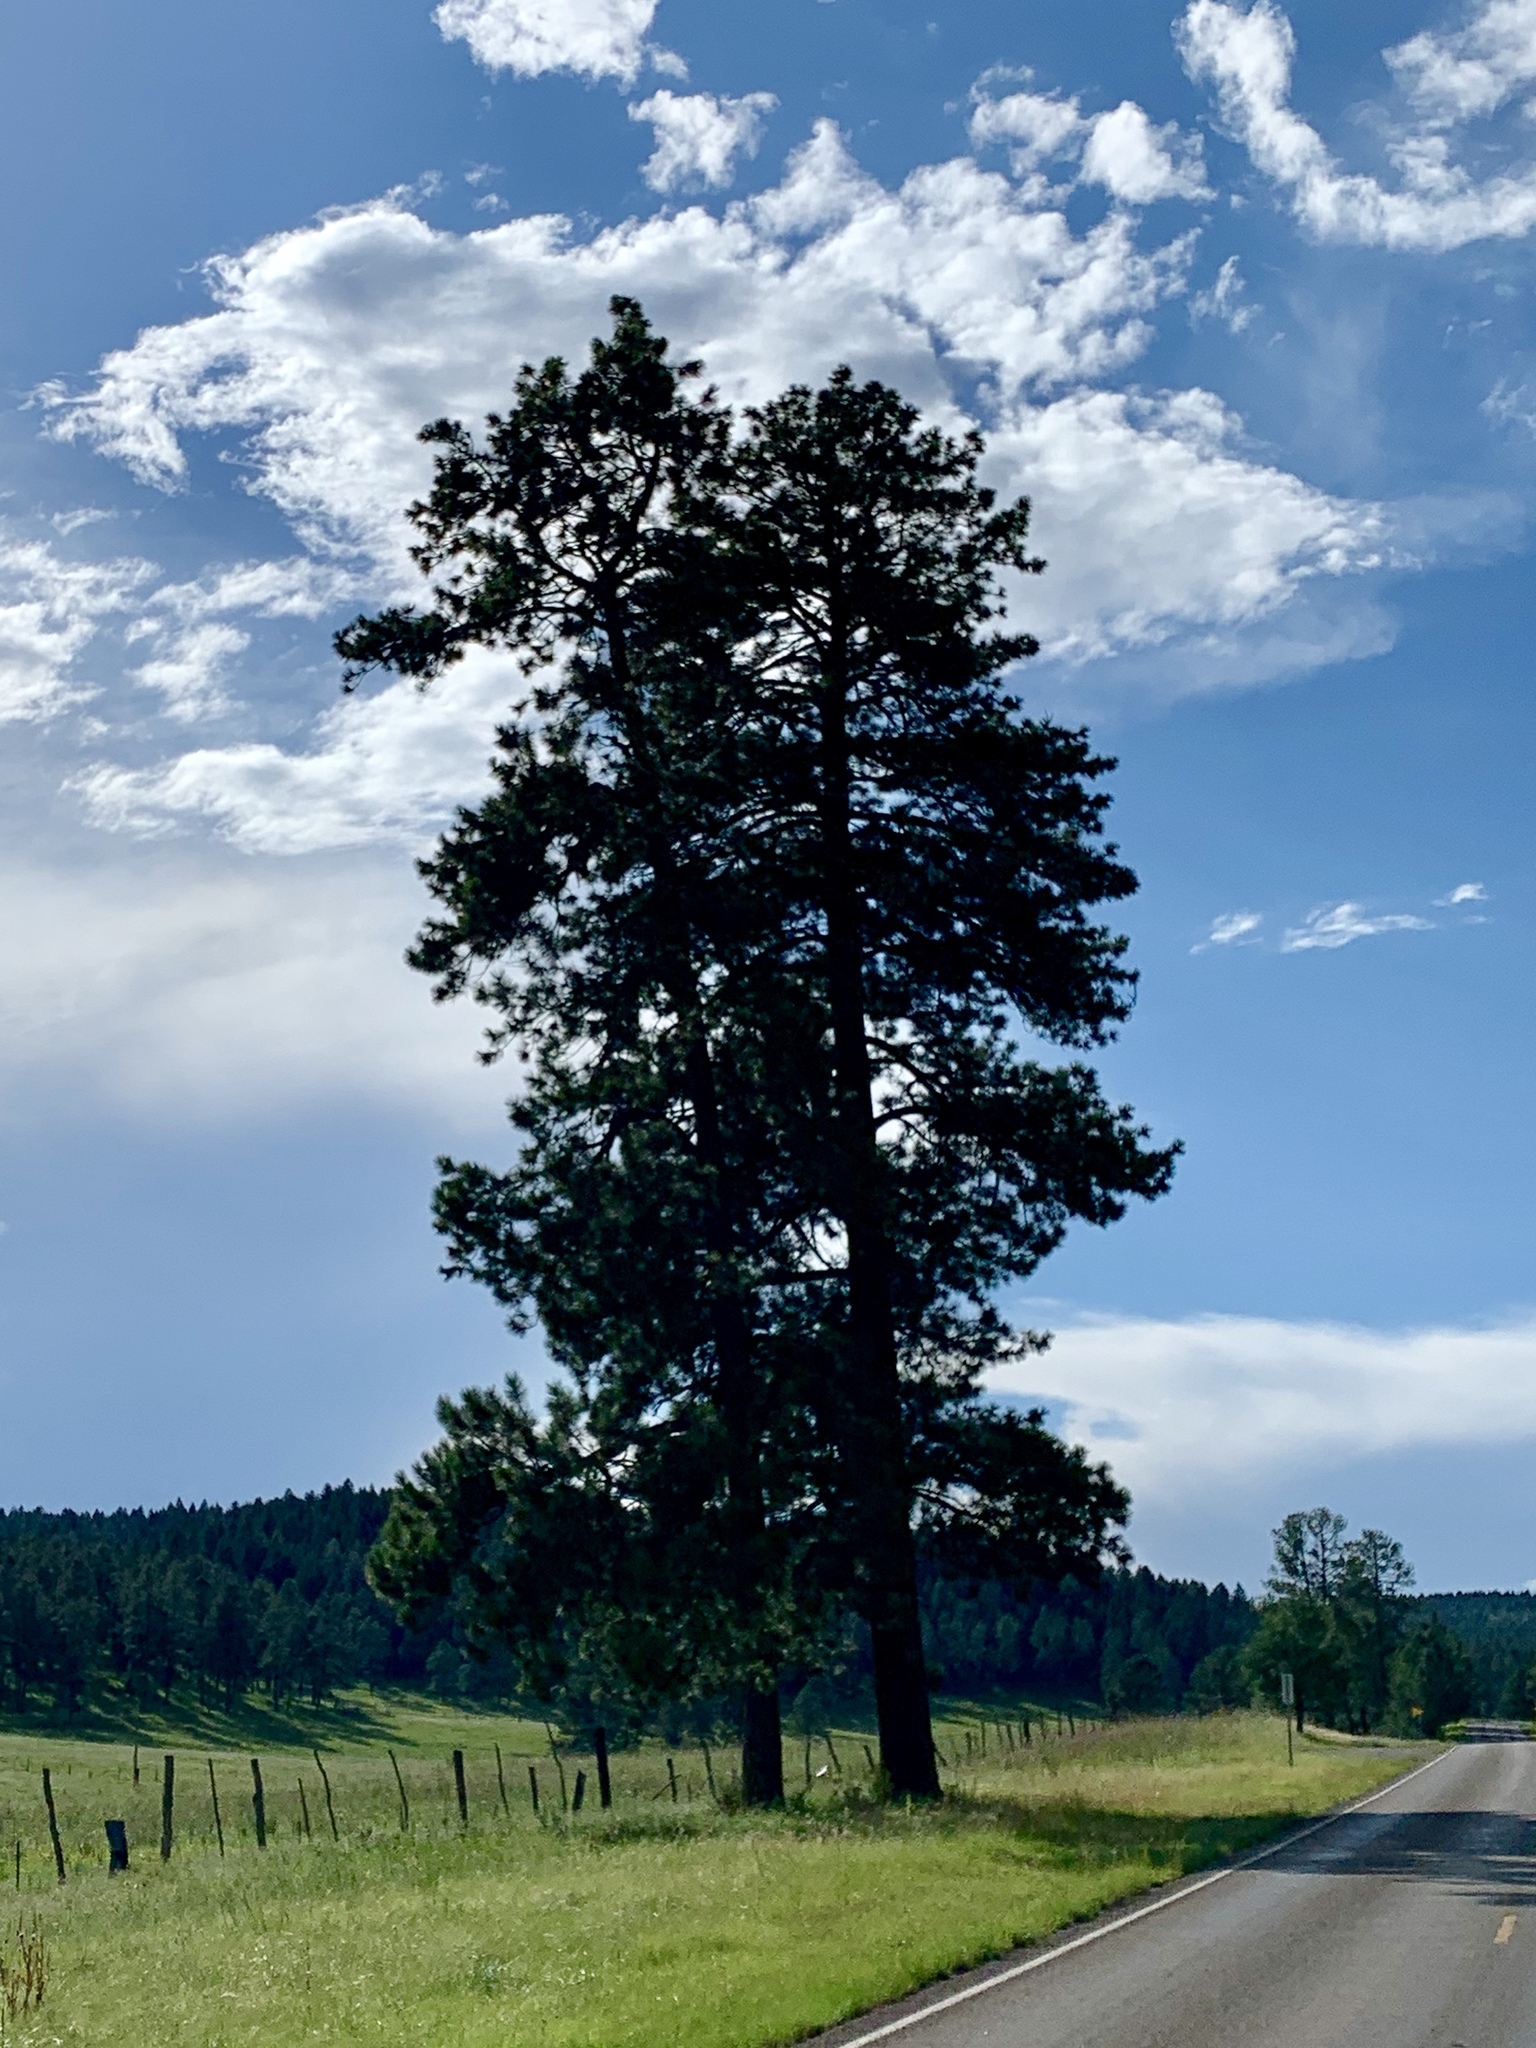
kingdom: Plantae
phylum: Tracheophyta
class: Pinopsida
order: Pinales
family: Pinaceae
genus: Pinus
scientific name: Pinus ponderosa
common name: Western yellow-pine
